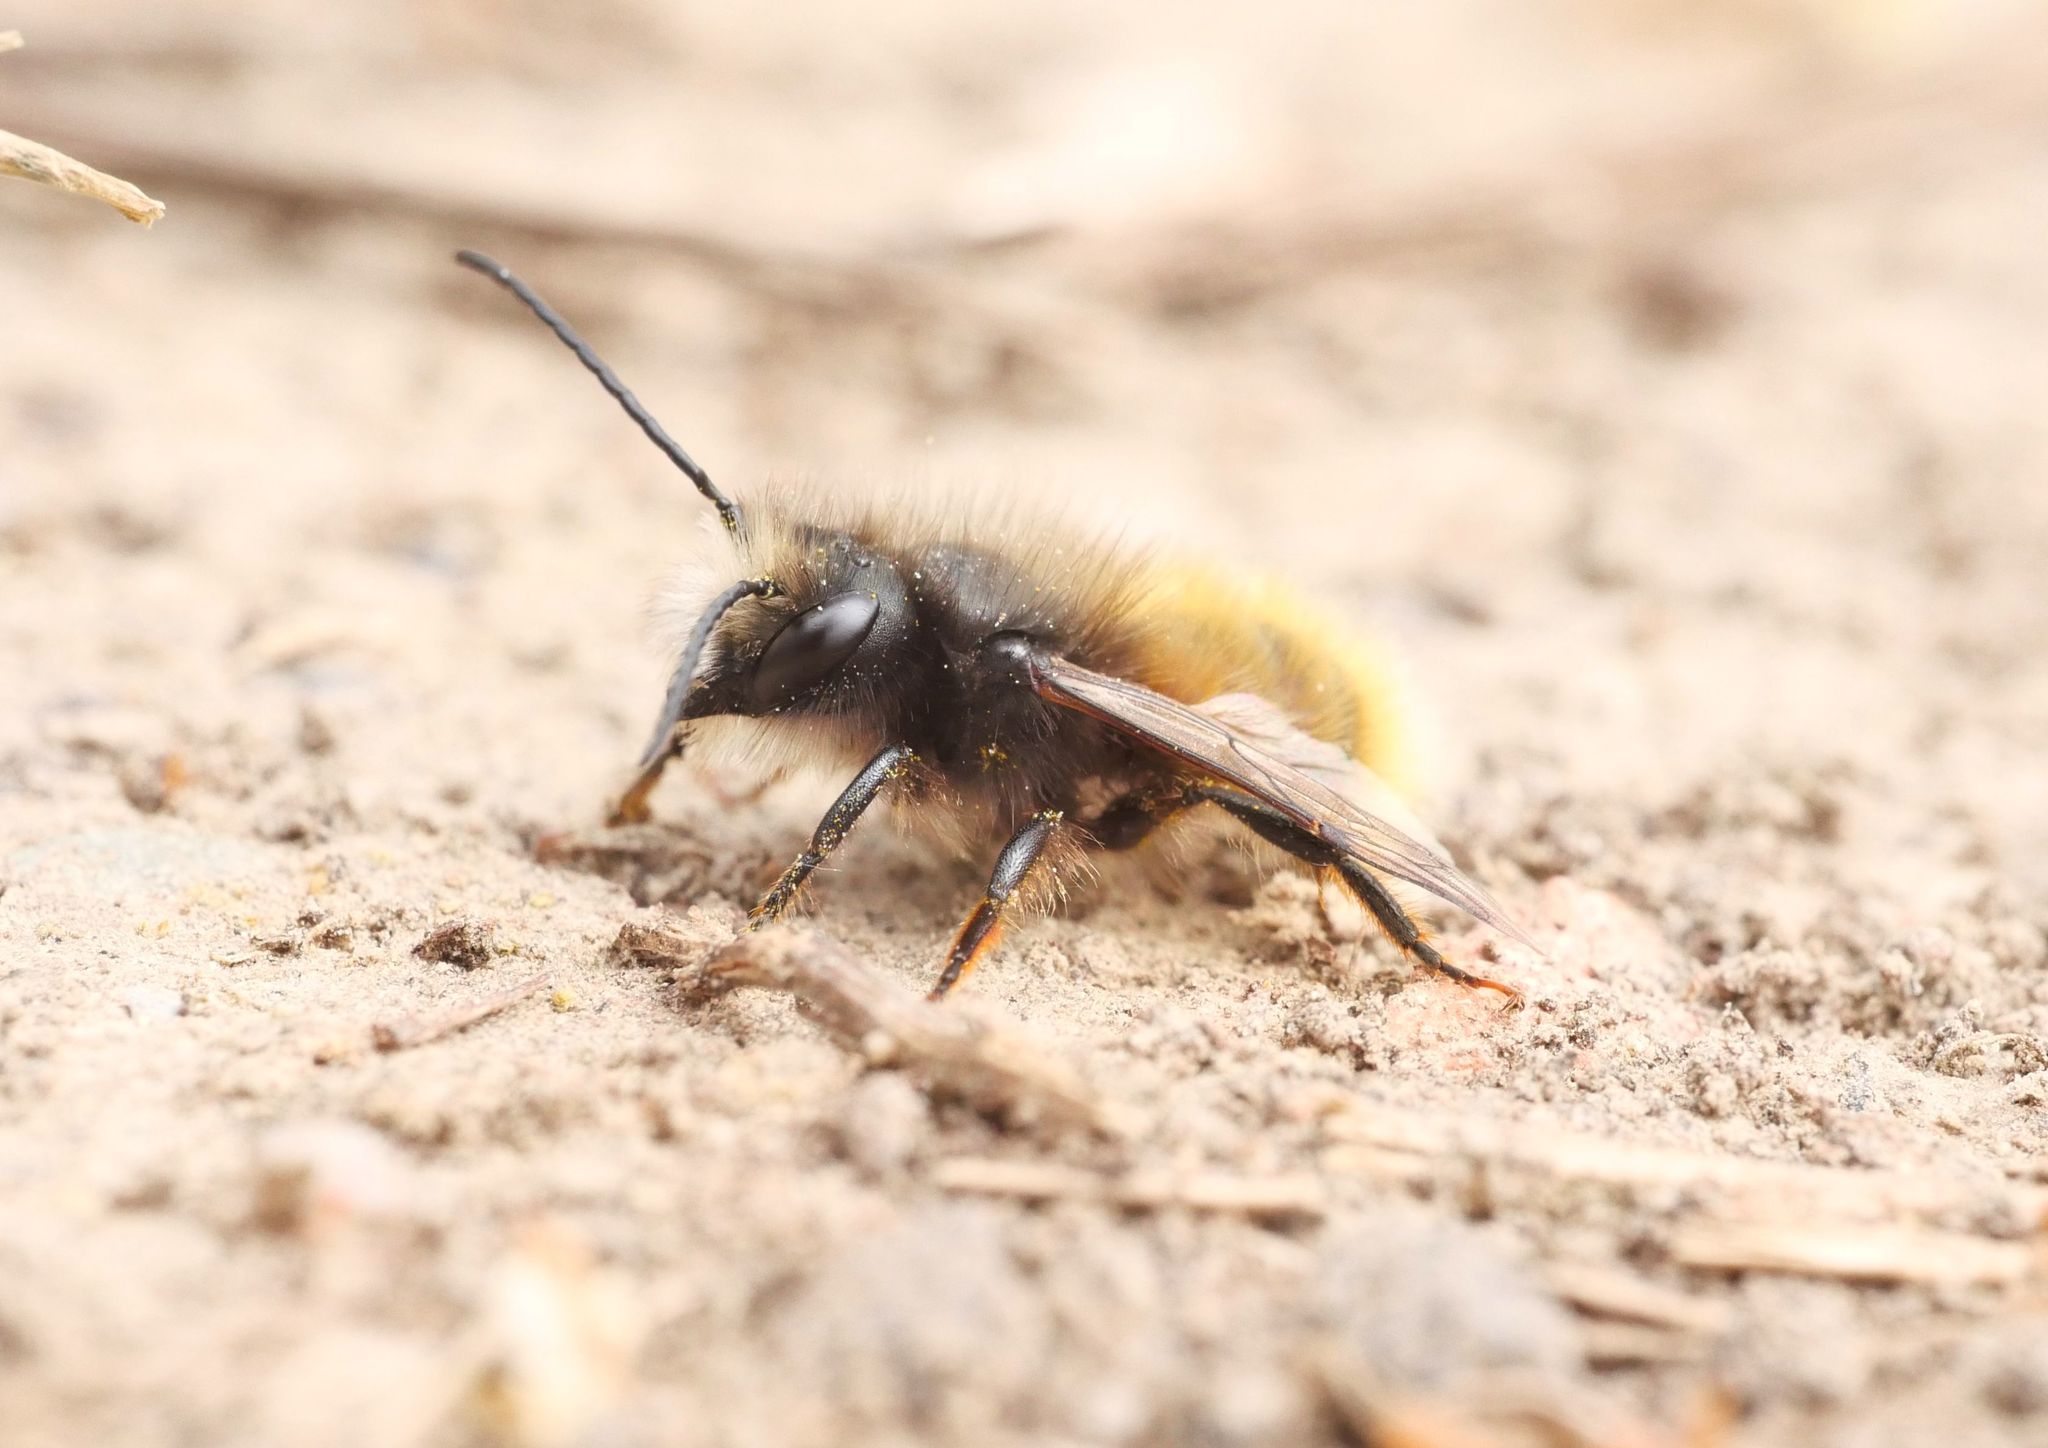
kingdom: Animalia
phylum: Arthropoda
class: Insecta
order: Hymenoptera
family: Megachilidae
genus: Osmia
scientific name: Osmia cornuta
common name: Mason bee
